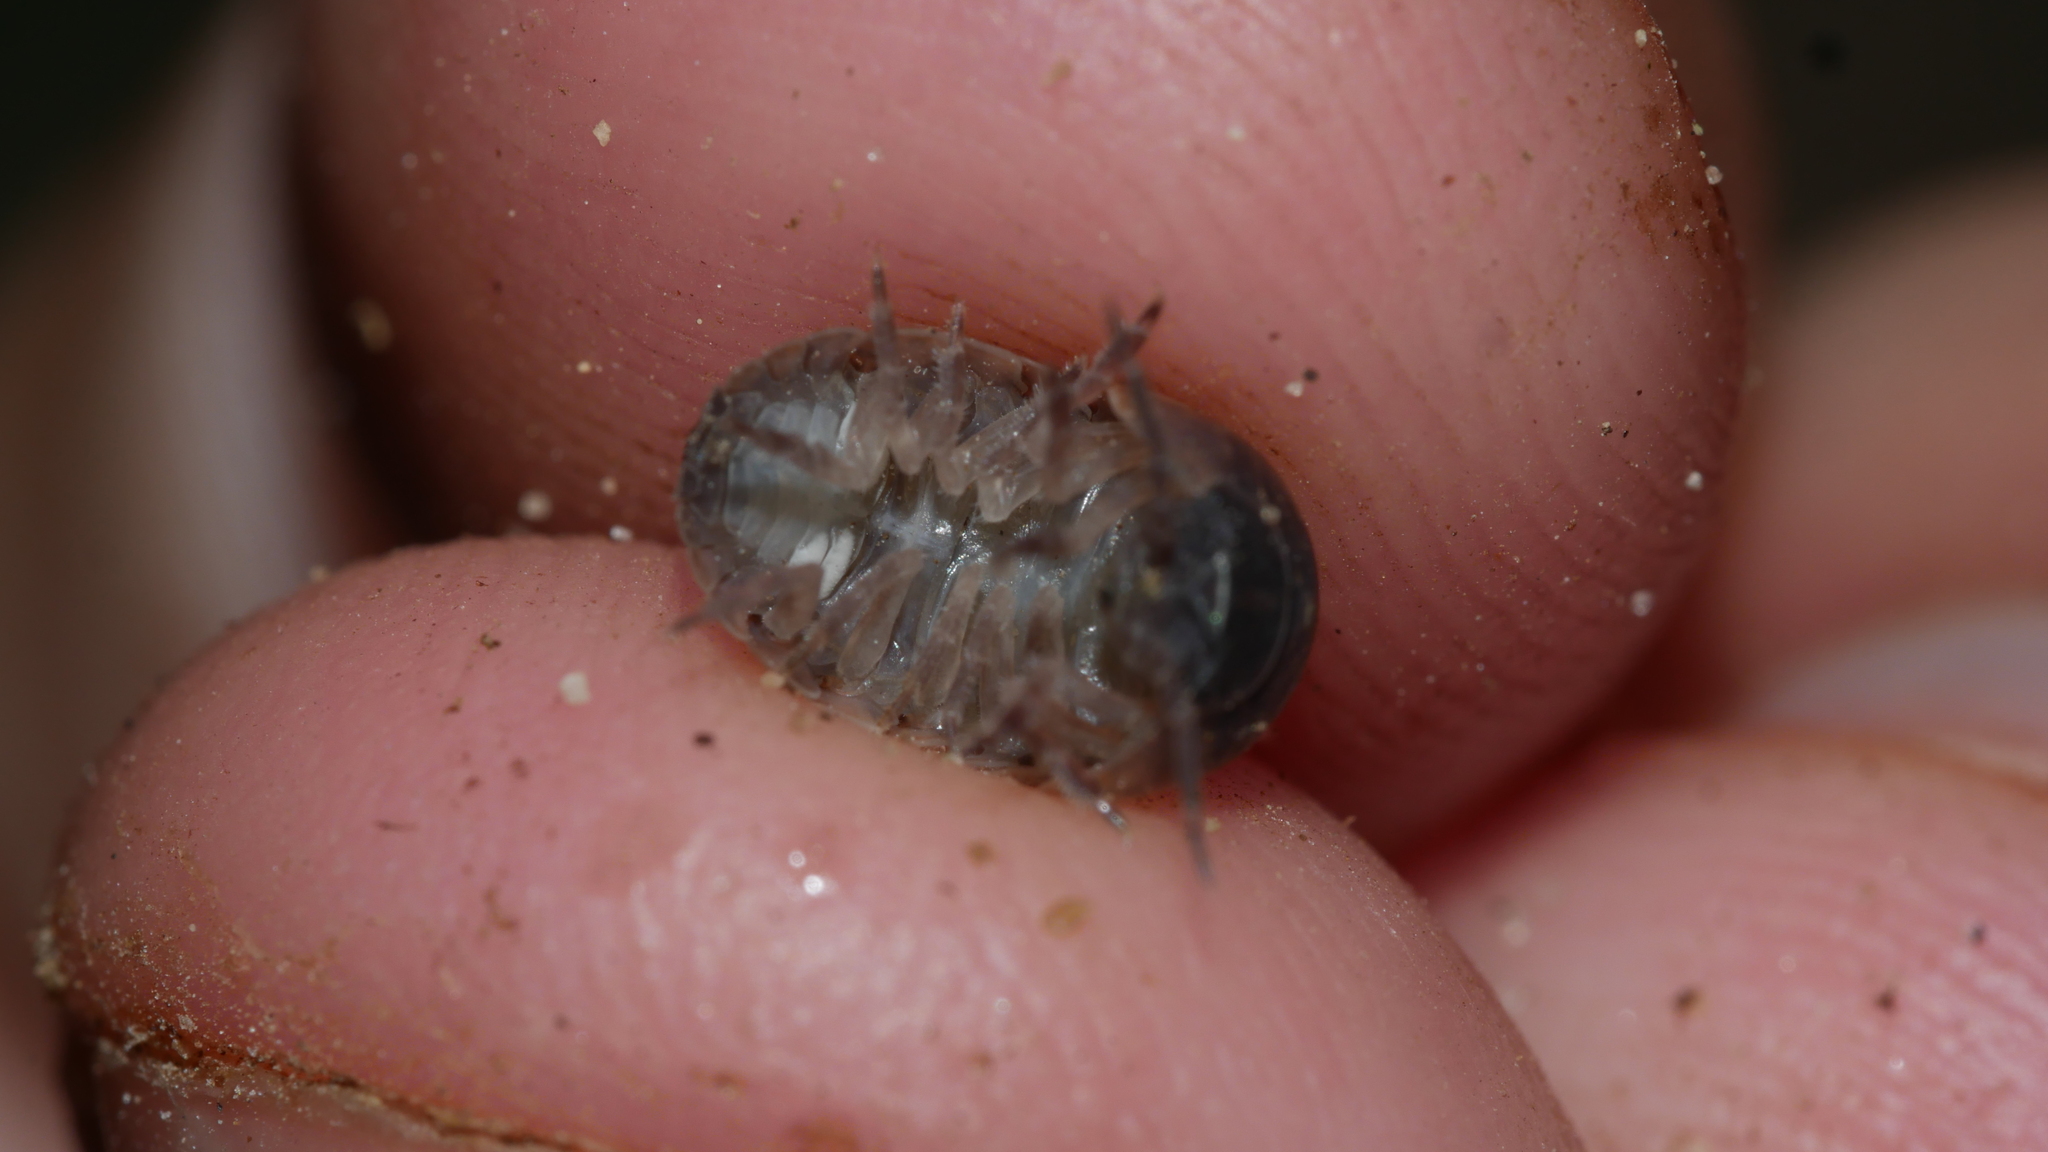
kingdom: Animalia
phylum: Arthropoda
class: Malacostraca
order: Isopoda
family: Armadillidiidae
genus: Armadillidium
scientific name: Armadillidium vulgare
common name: Common pill woodlouse
